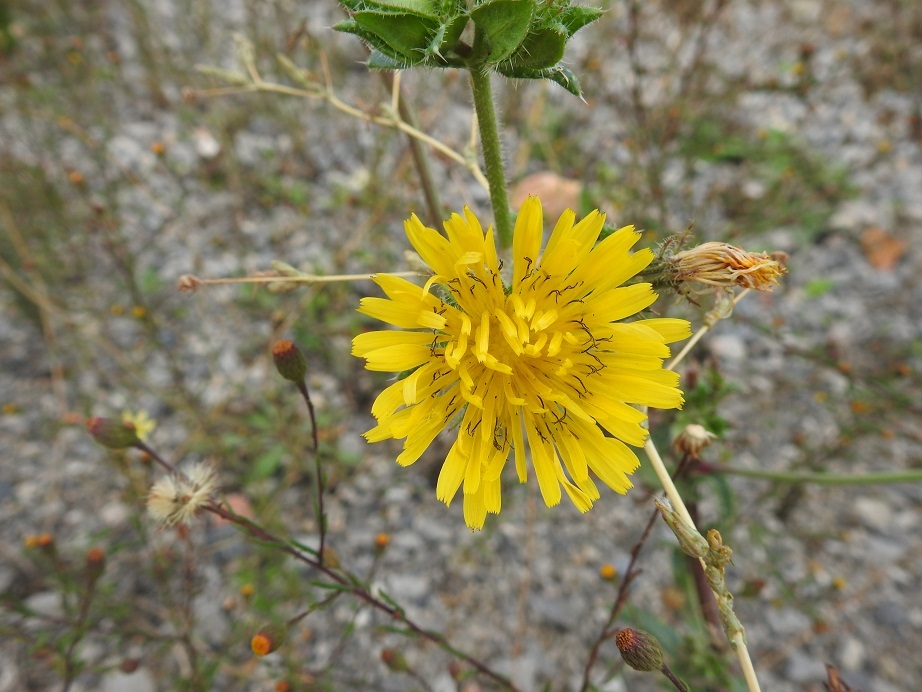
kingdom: Plantae
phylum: Tracheophyta
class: Magnoliopsida
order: Asterales
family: Asteraceae
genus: Helminthotheca
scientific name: Helminthotheca echioides
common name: Ox-tongue
